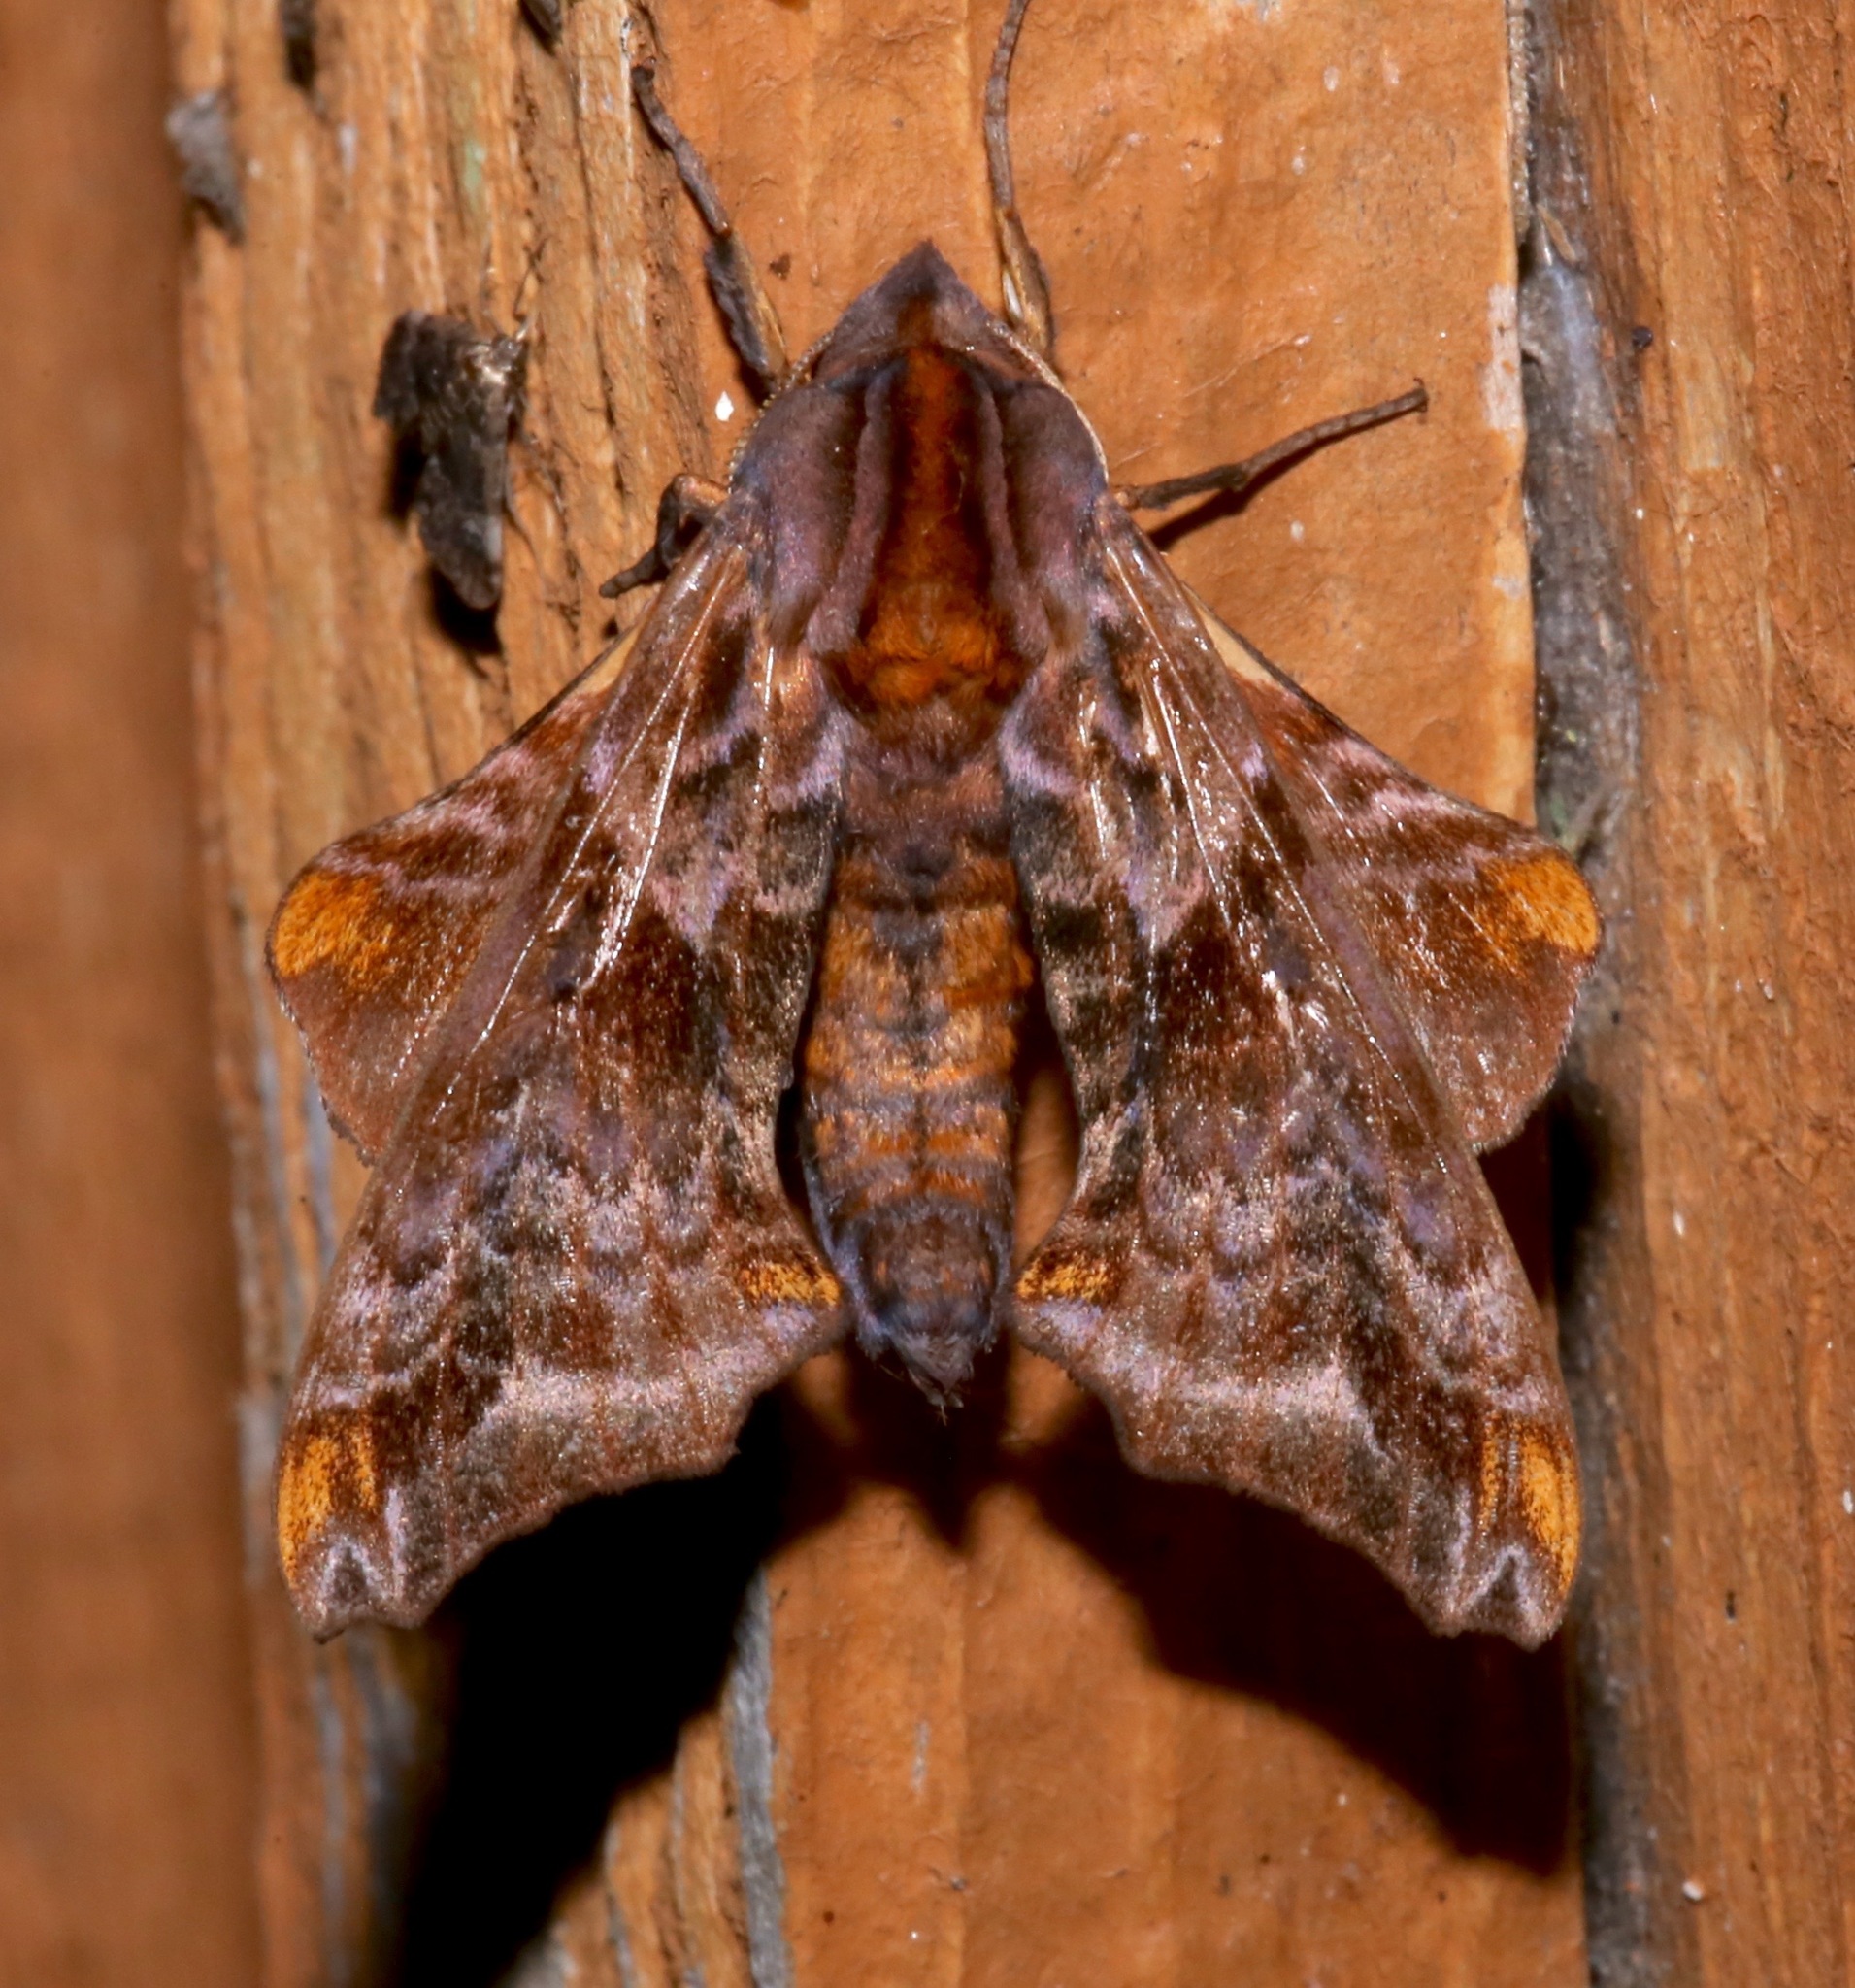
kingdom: Animalia
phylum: Arthropoda
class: Insecta
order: Lepidoptera
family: Sphingidae
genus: Paonias
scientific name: Paonias myops
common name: Small-eyed sphinx
